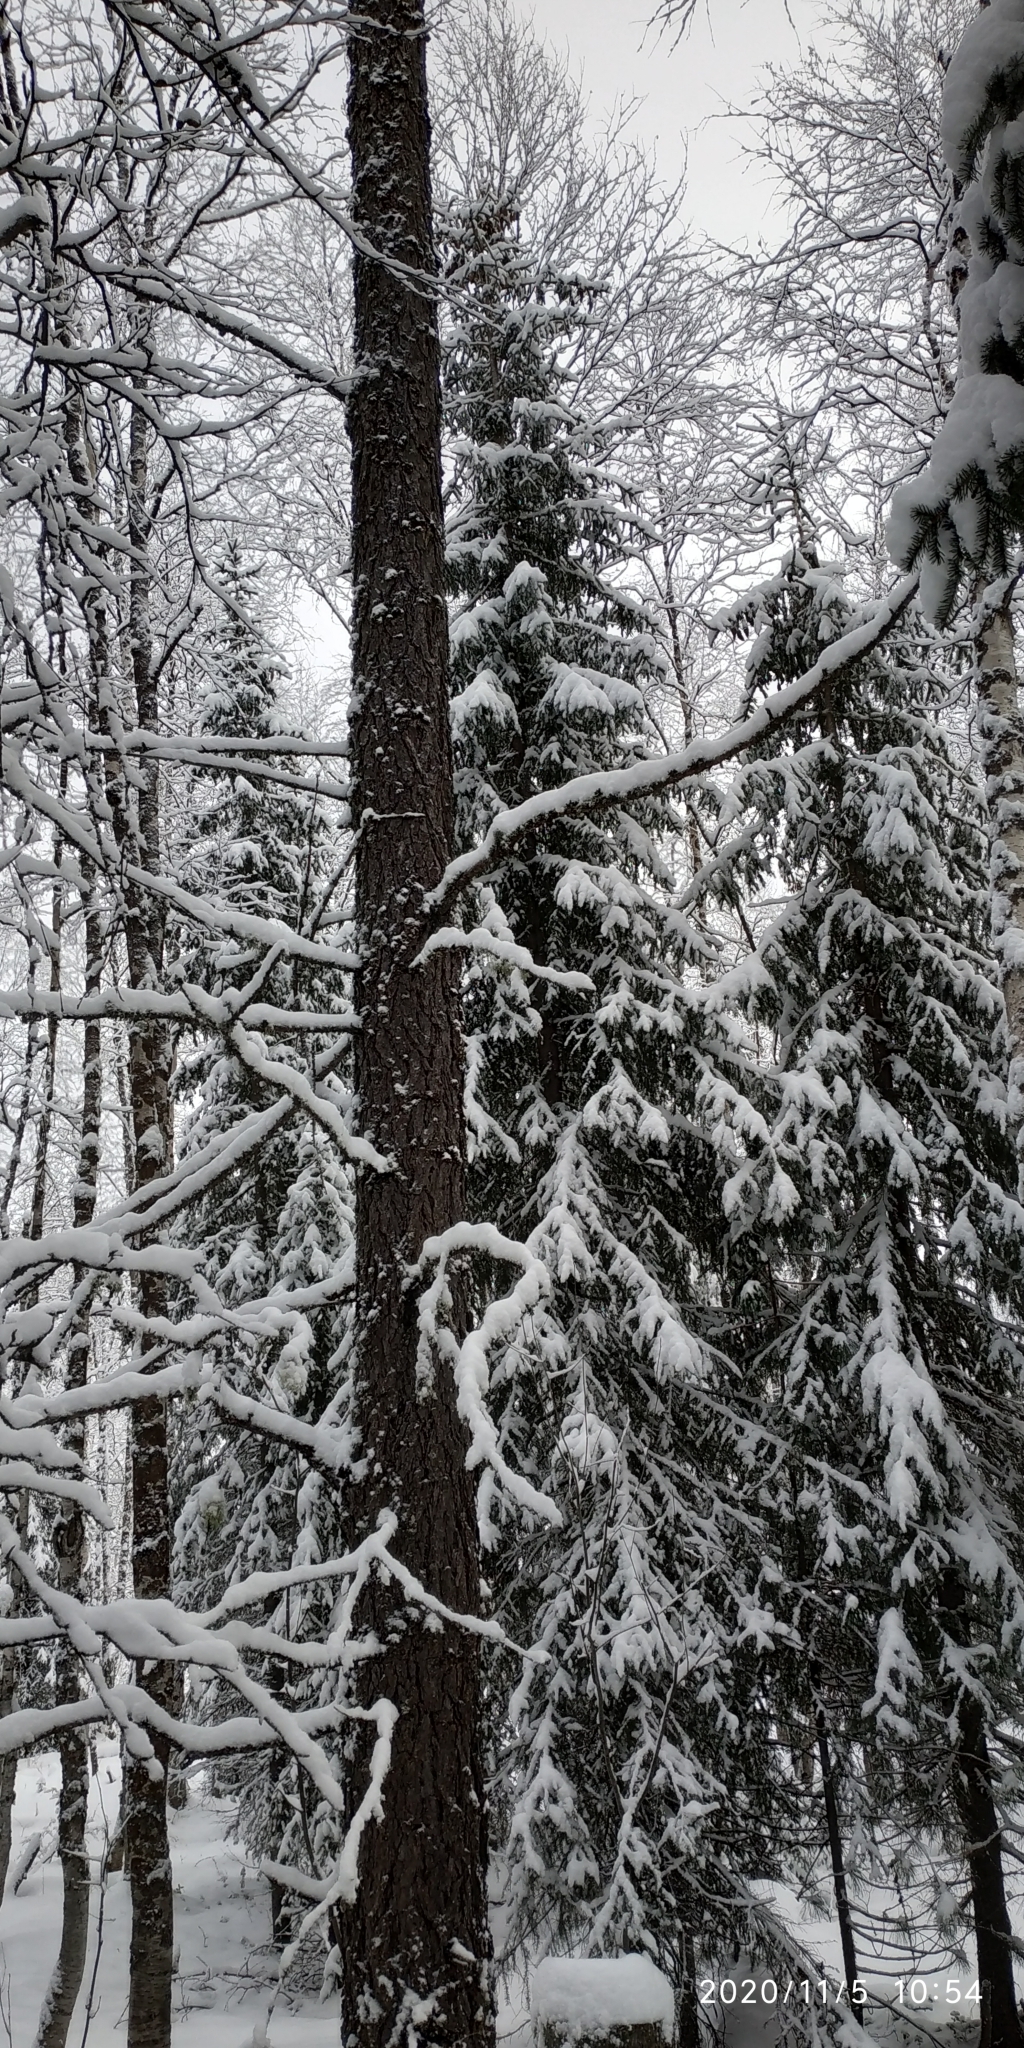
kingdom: Plantae
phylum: Tracheophyta
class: Pinopsida
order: Pinales
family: Pinaceae
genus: Larix
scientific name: Larix sibirica
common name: Siberian larch
